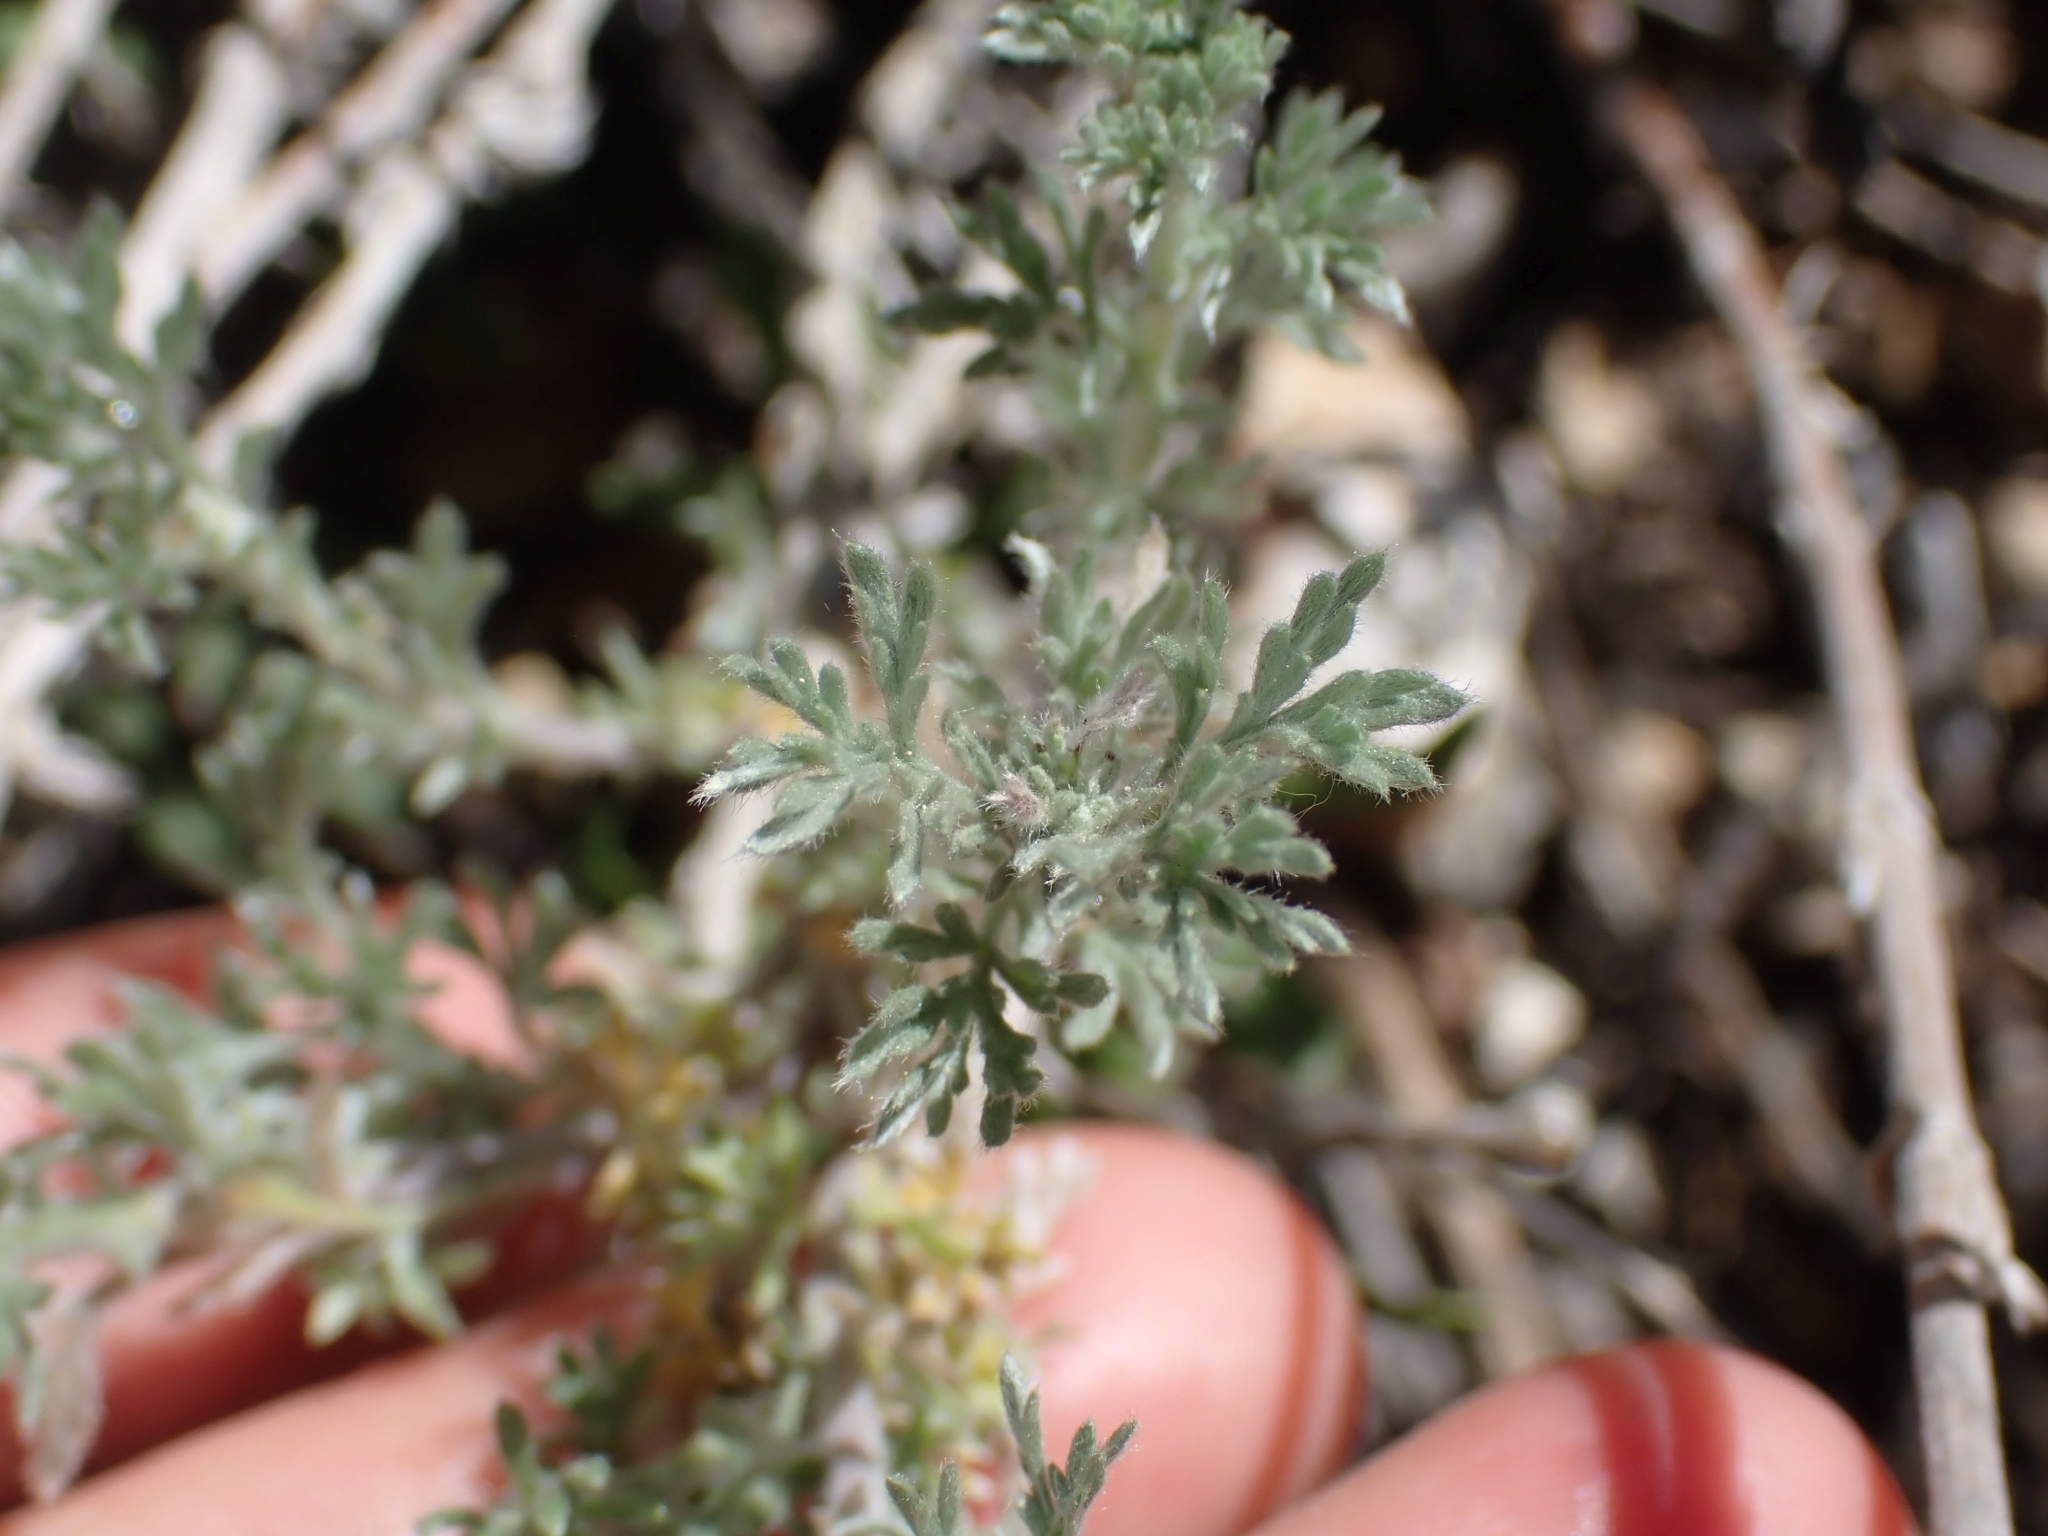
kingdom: Plantae
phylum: Tracheophyta
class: Magnoliopsida
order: Asterales
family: Asteraceae
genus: Artemisia
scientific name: Artemisia frigida
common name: Prairie sagewort
